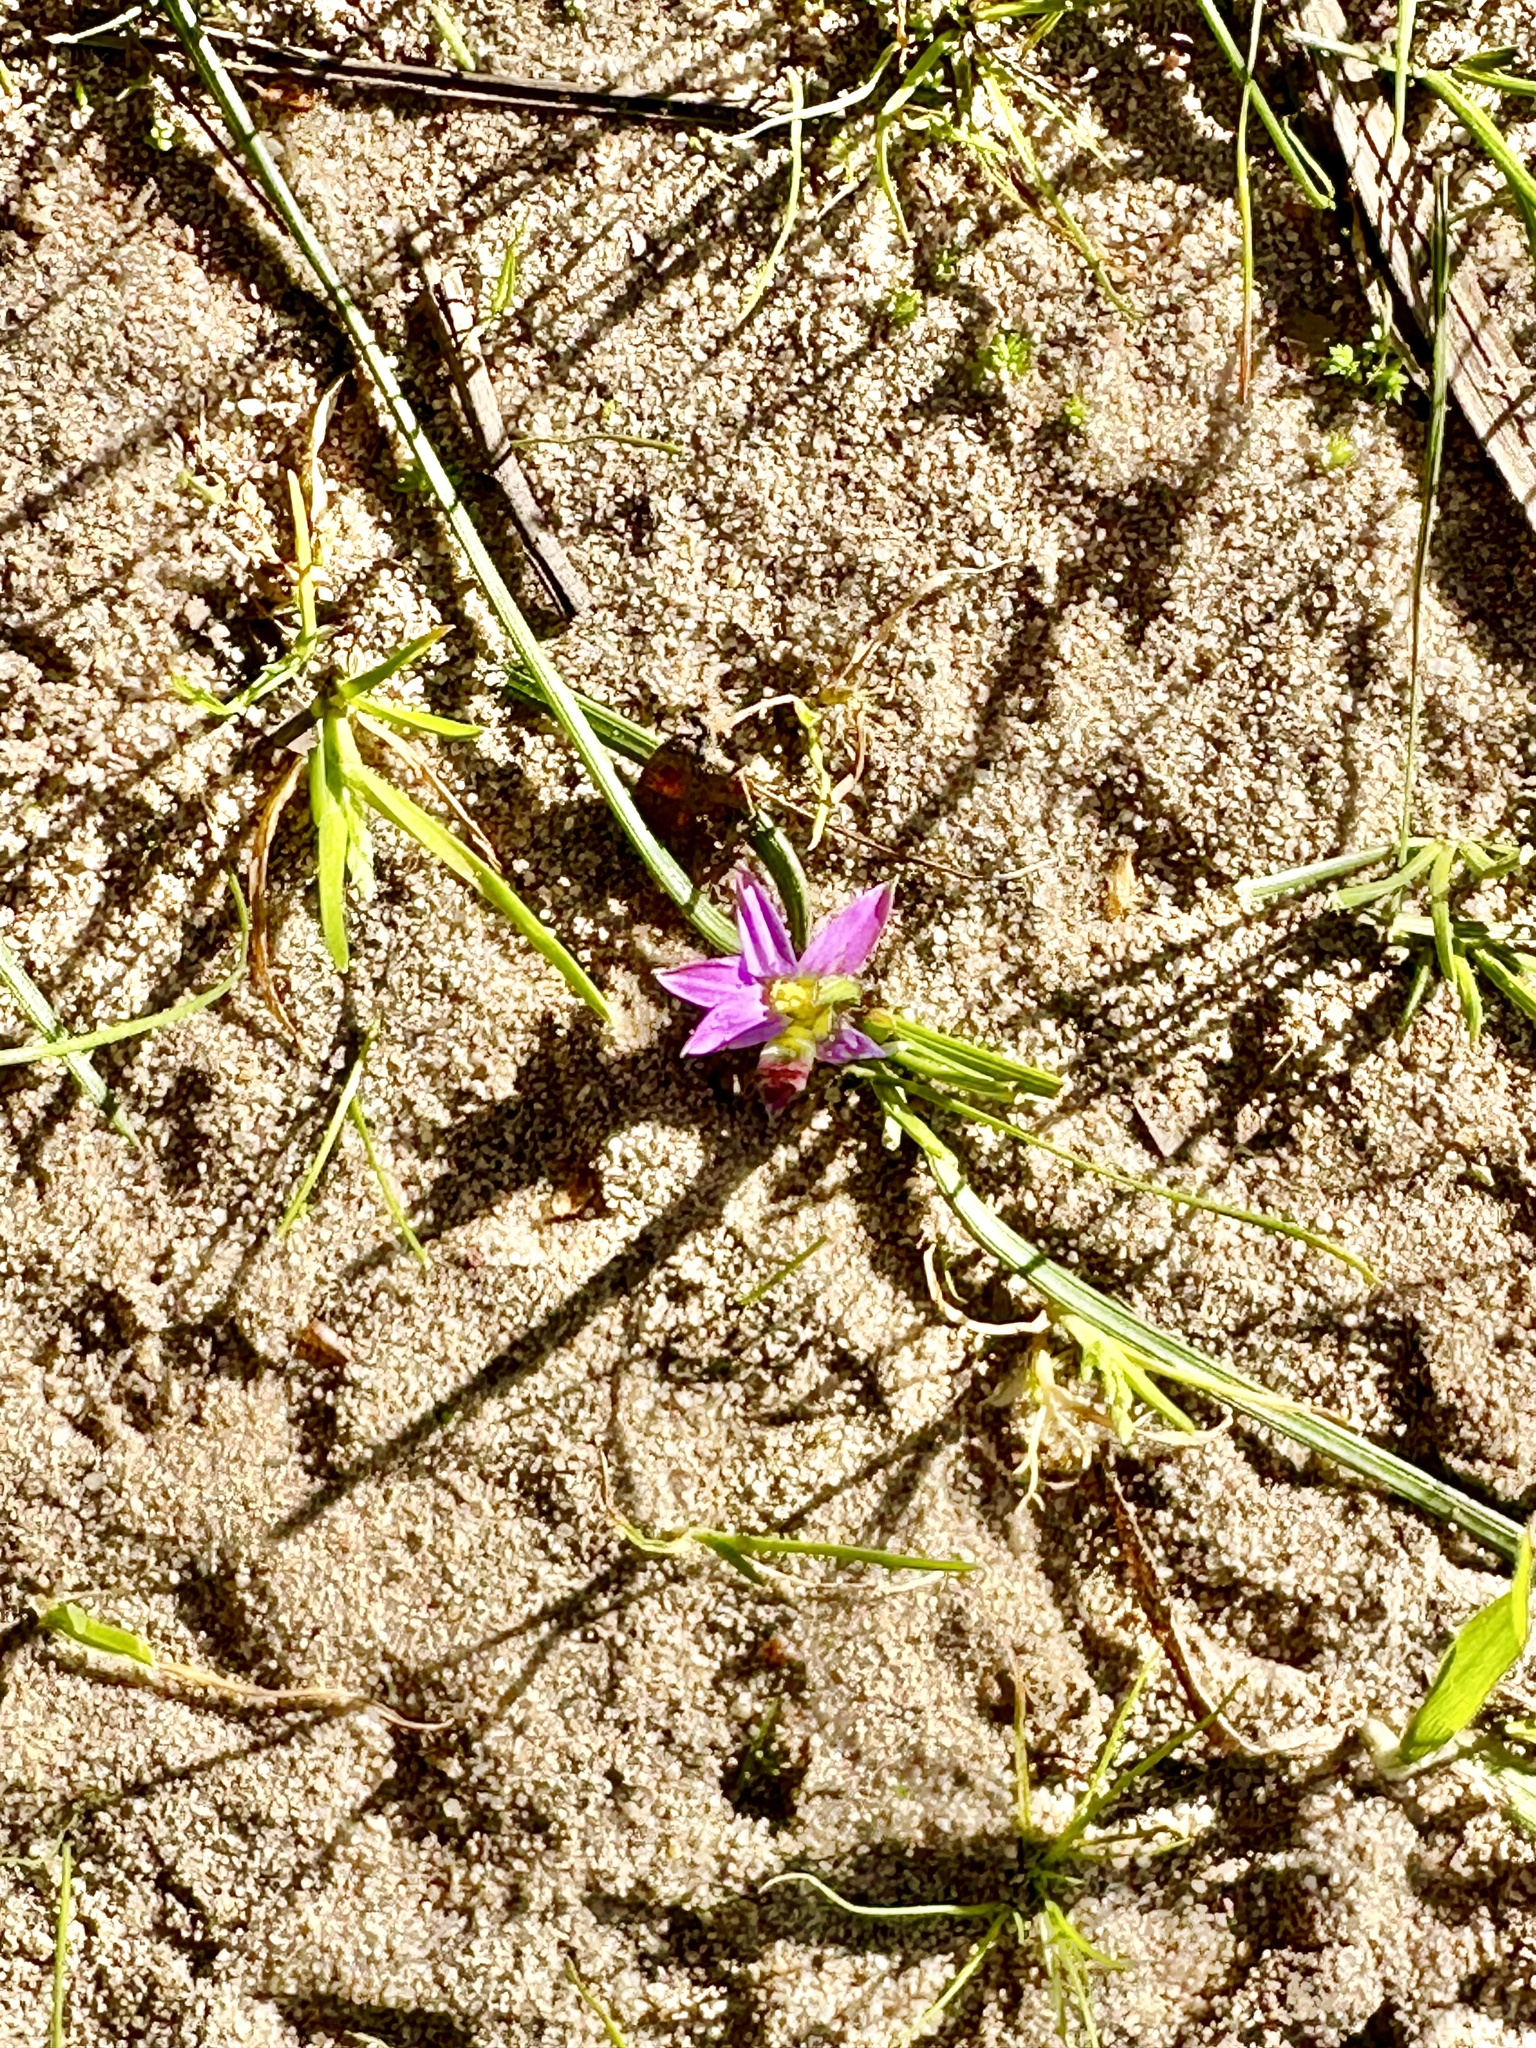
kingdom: Plantae
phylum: Tracheophyta
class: Liliopsida
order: Asparagales
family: Iridaceae
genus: Romulea
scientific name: Romulea rosea
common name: Oniongrass
